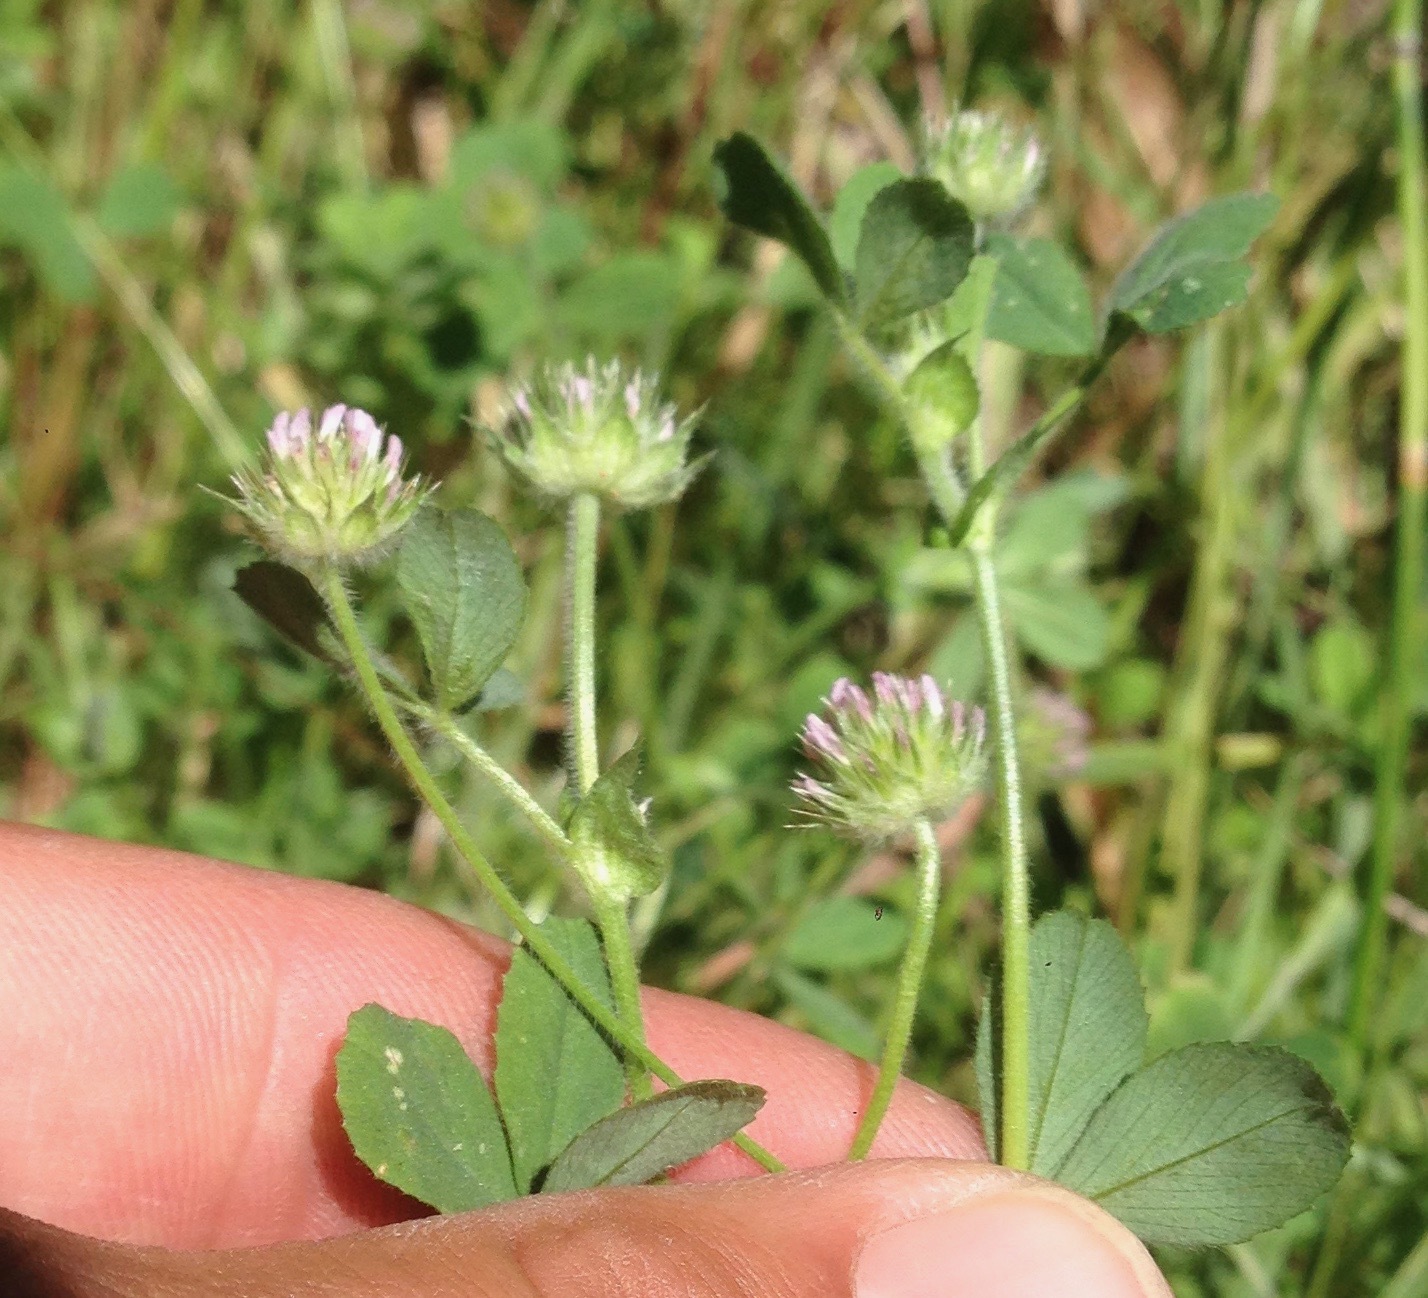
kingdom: Plantae
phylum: Tracheophyta
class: Magnoliopsida
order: Fabales
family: Fabaceae
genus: Trifolium
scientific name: Trifolium microcephalum
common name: Maiden clover
